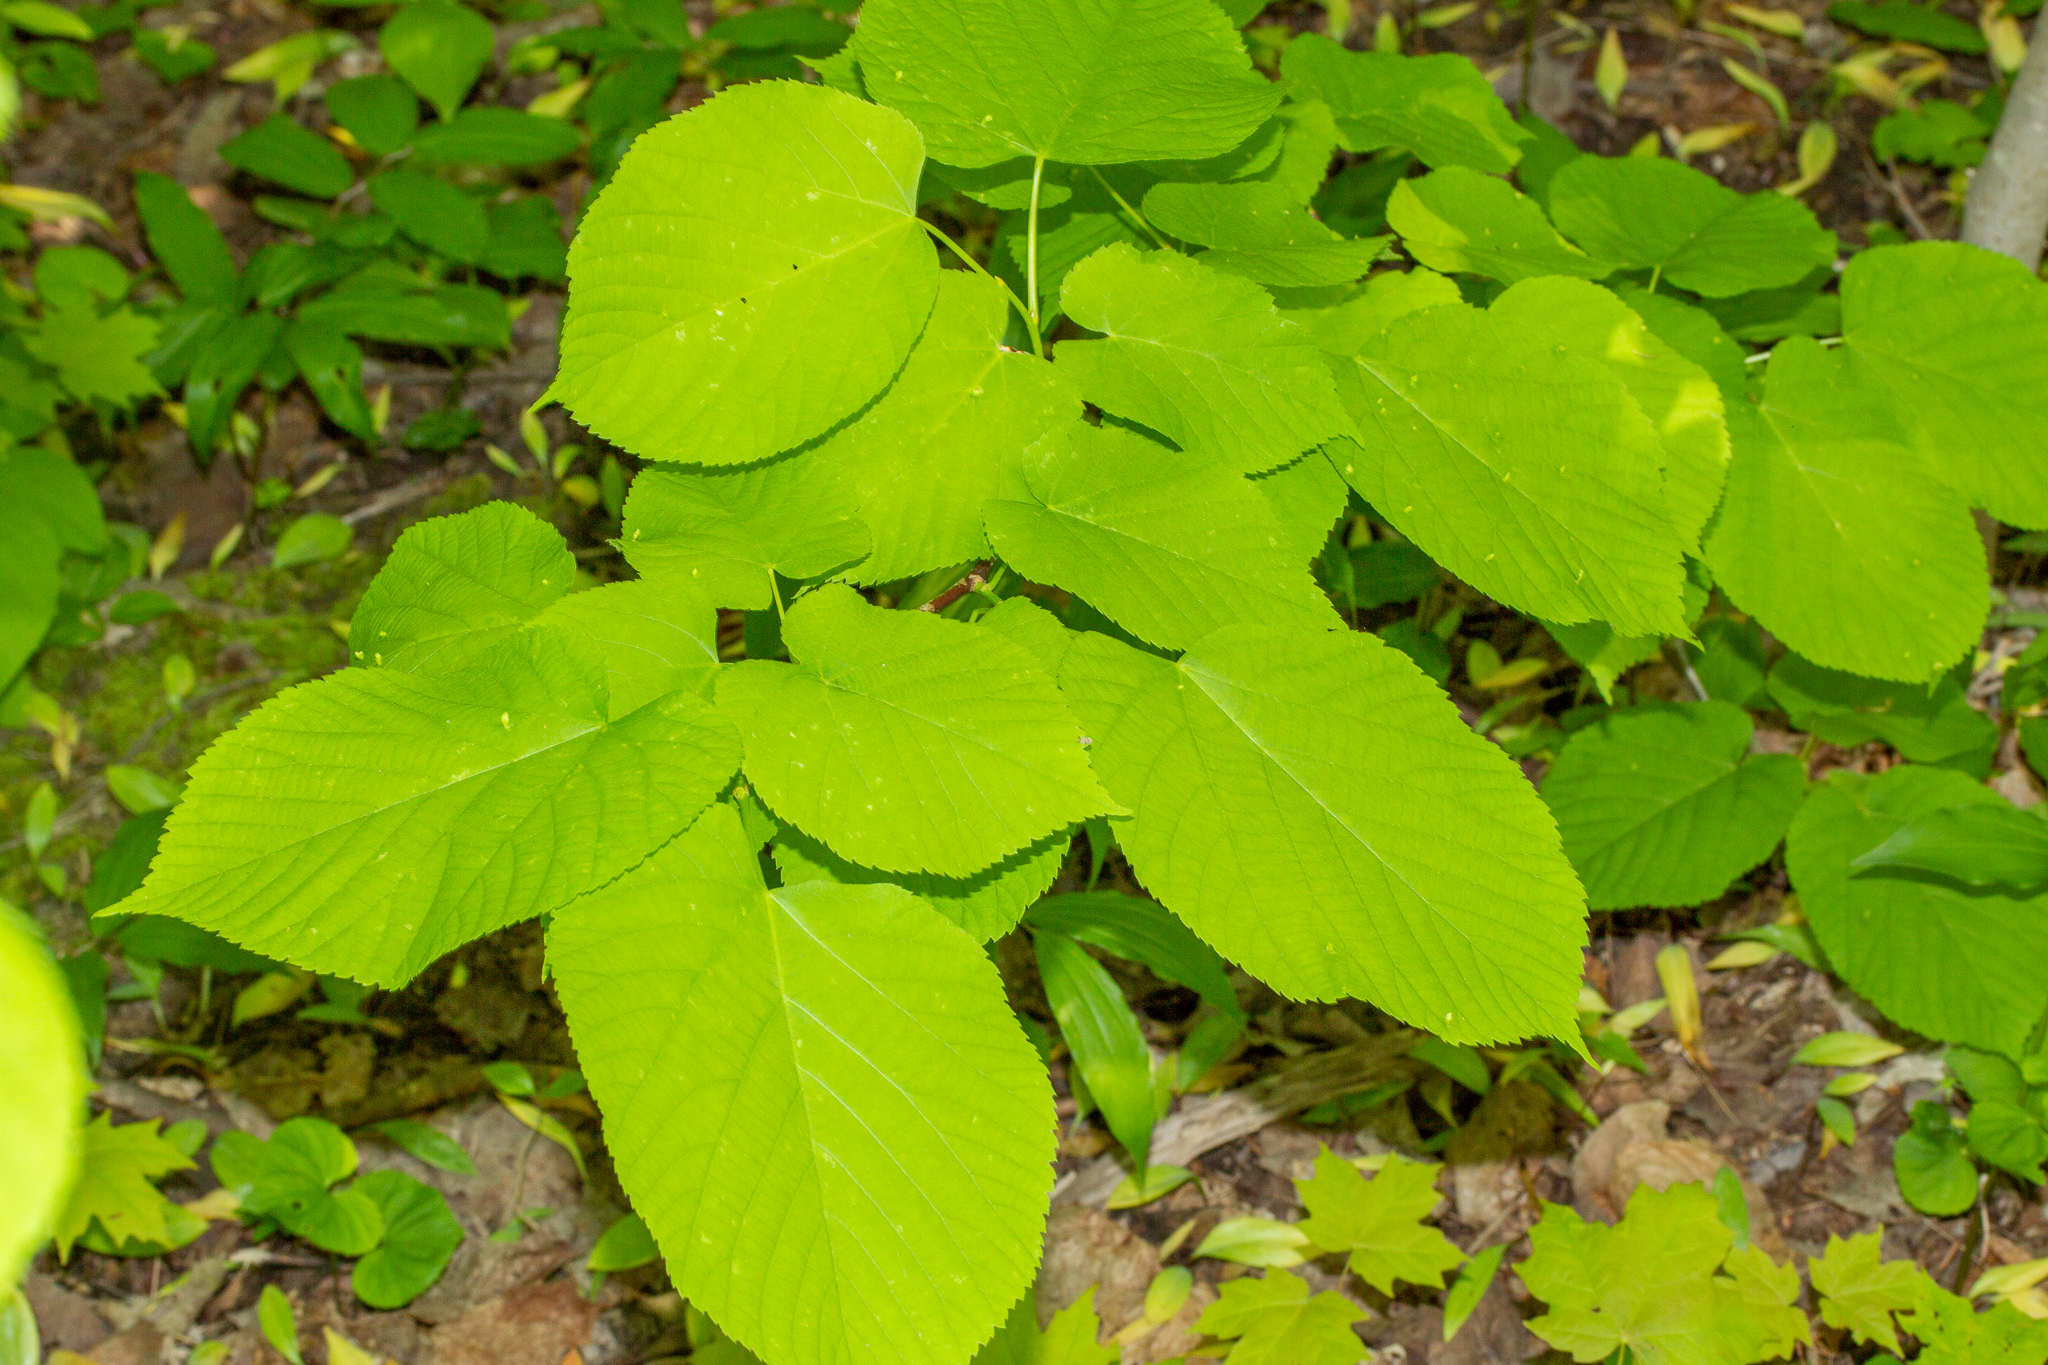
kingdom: Plantae
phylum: Tracheophyta
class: Magnoliopsida
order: Malvales
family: Malvaceae
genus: Tilia
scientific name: Tilia americana
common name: Basswood
